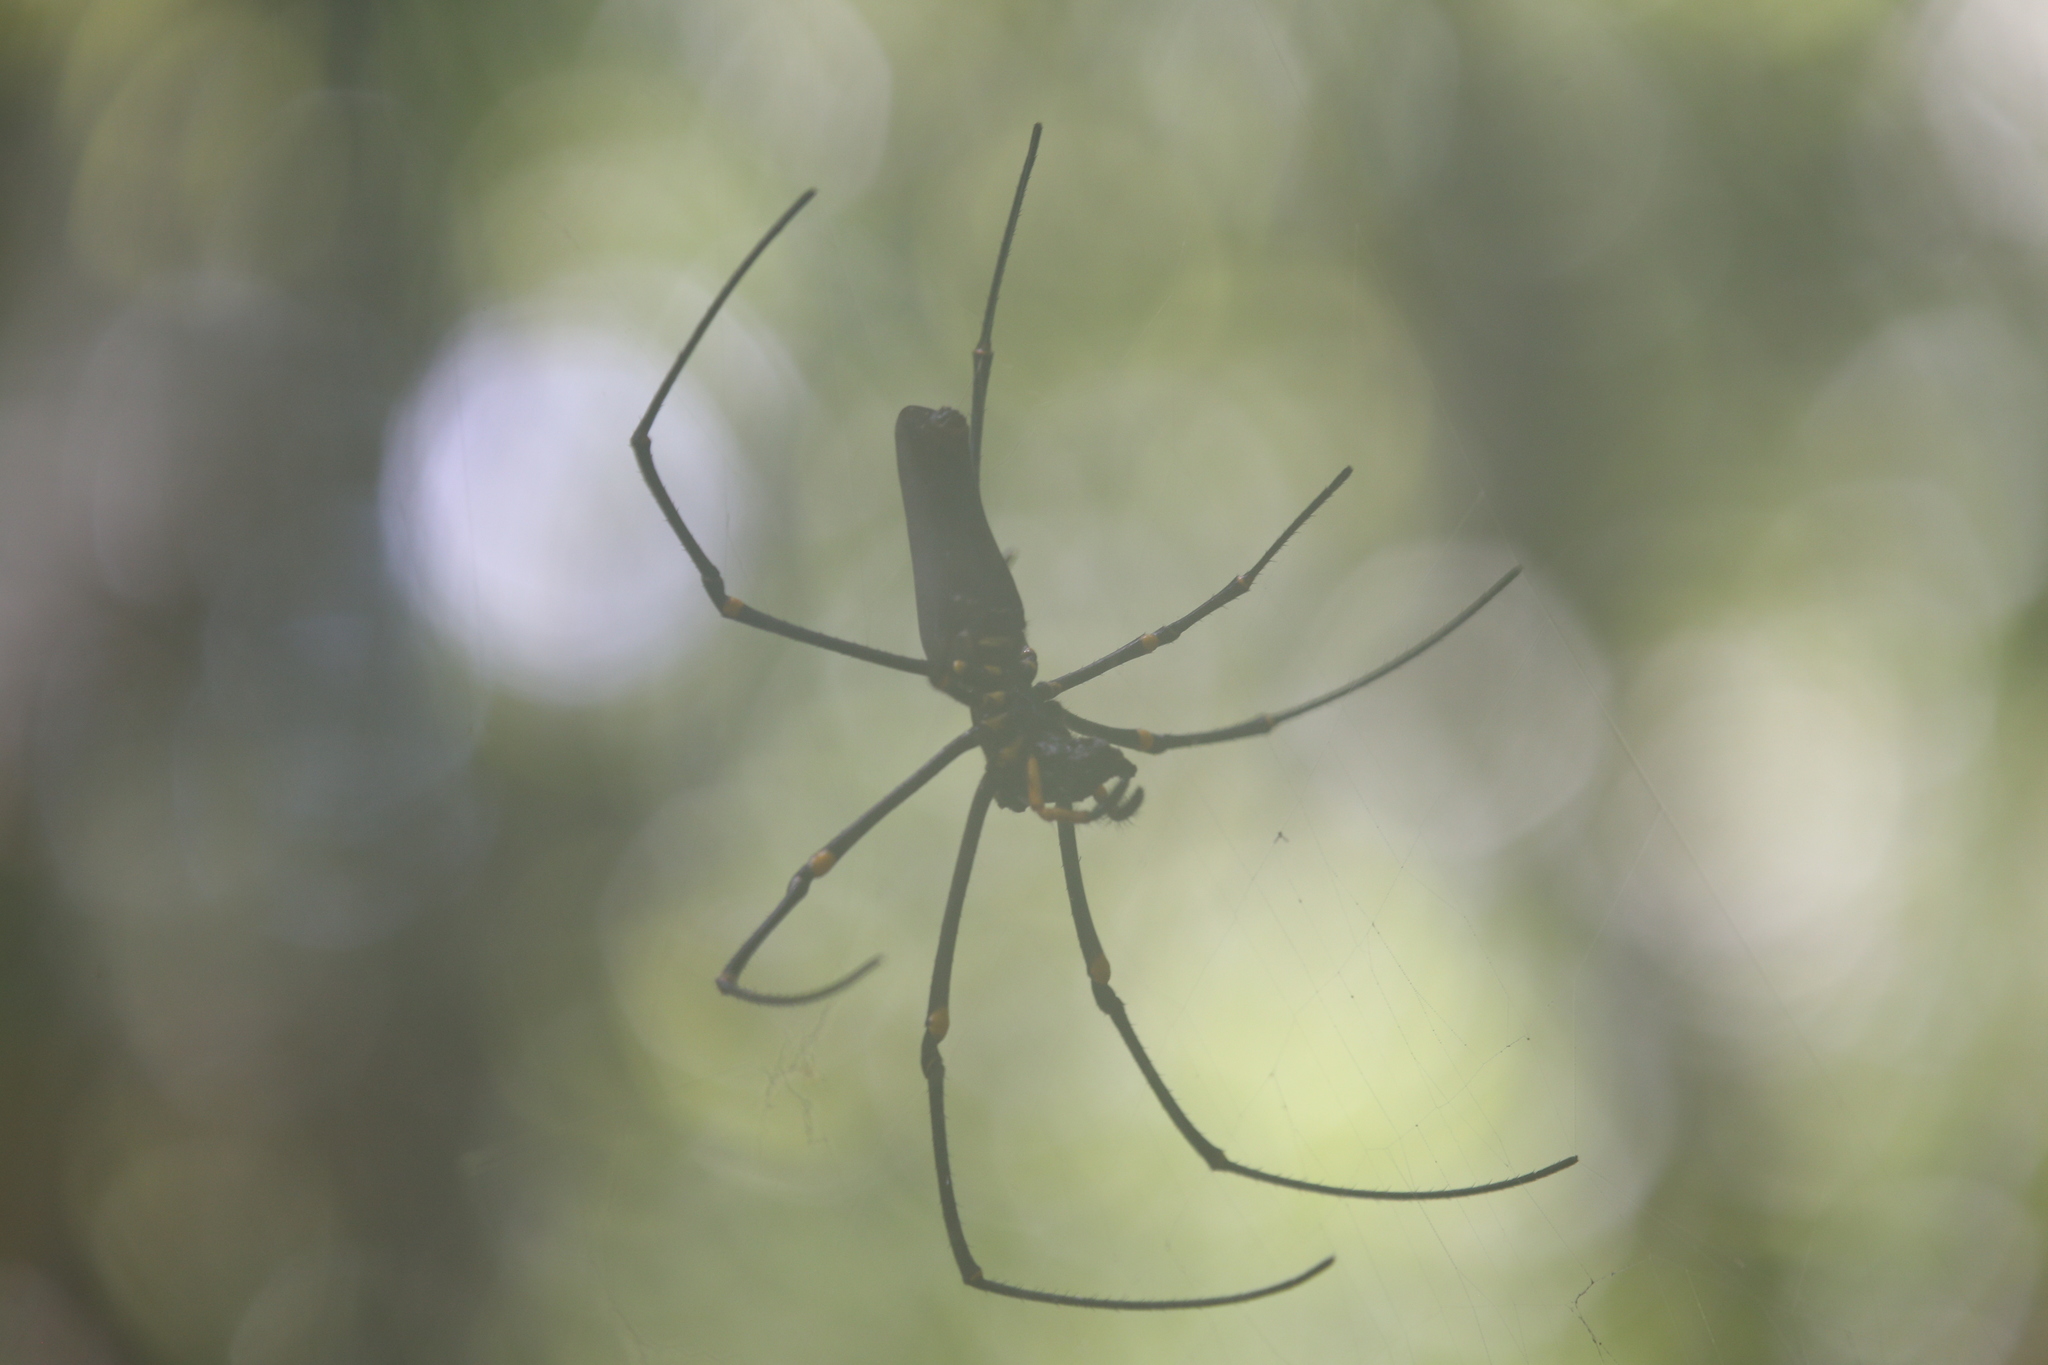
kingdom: Animalia
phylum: Arthropoda
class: Arachnida
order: Araneae
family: Araneidae
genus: Nephila
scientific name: Nephila pilipes
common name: Giant golden orb weaver
